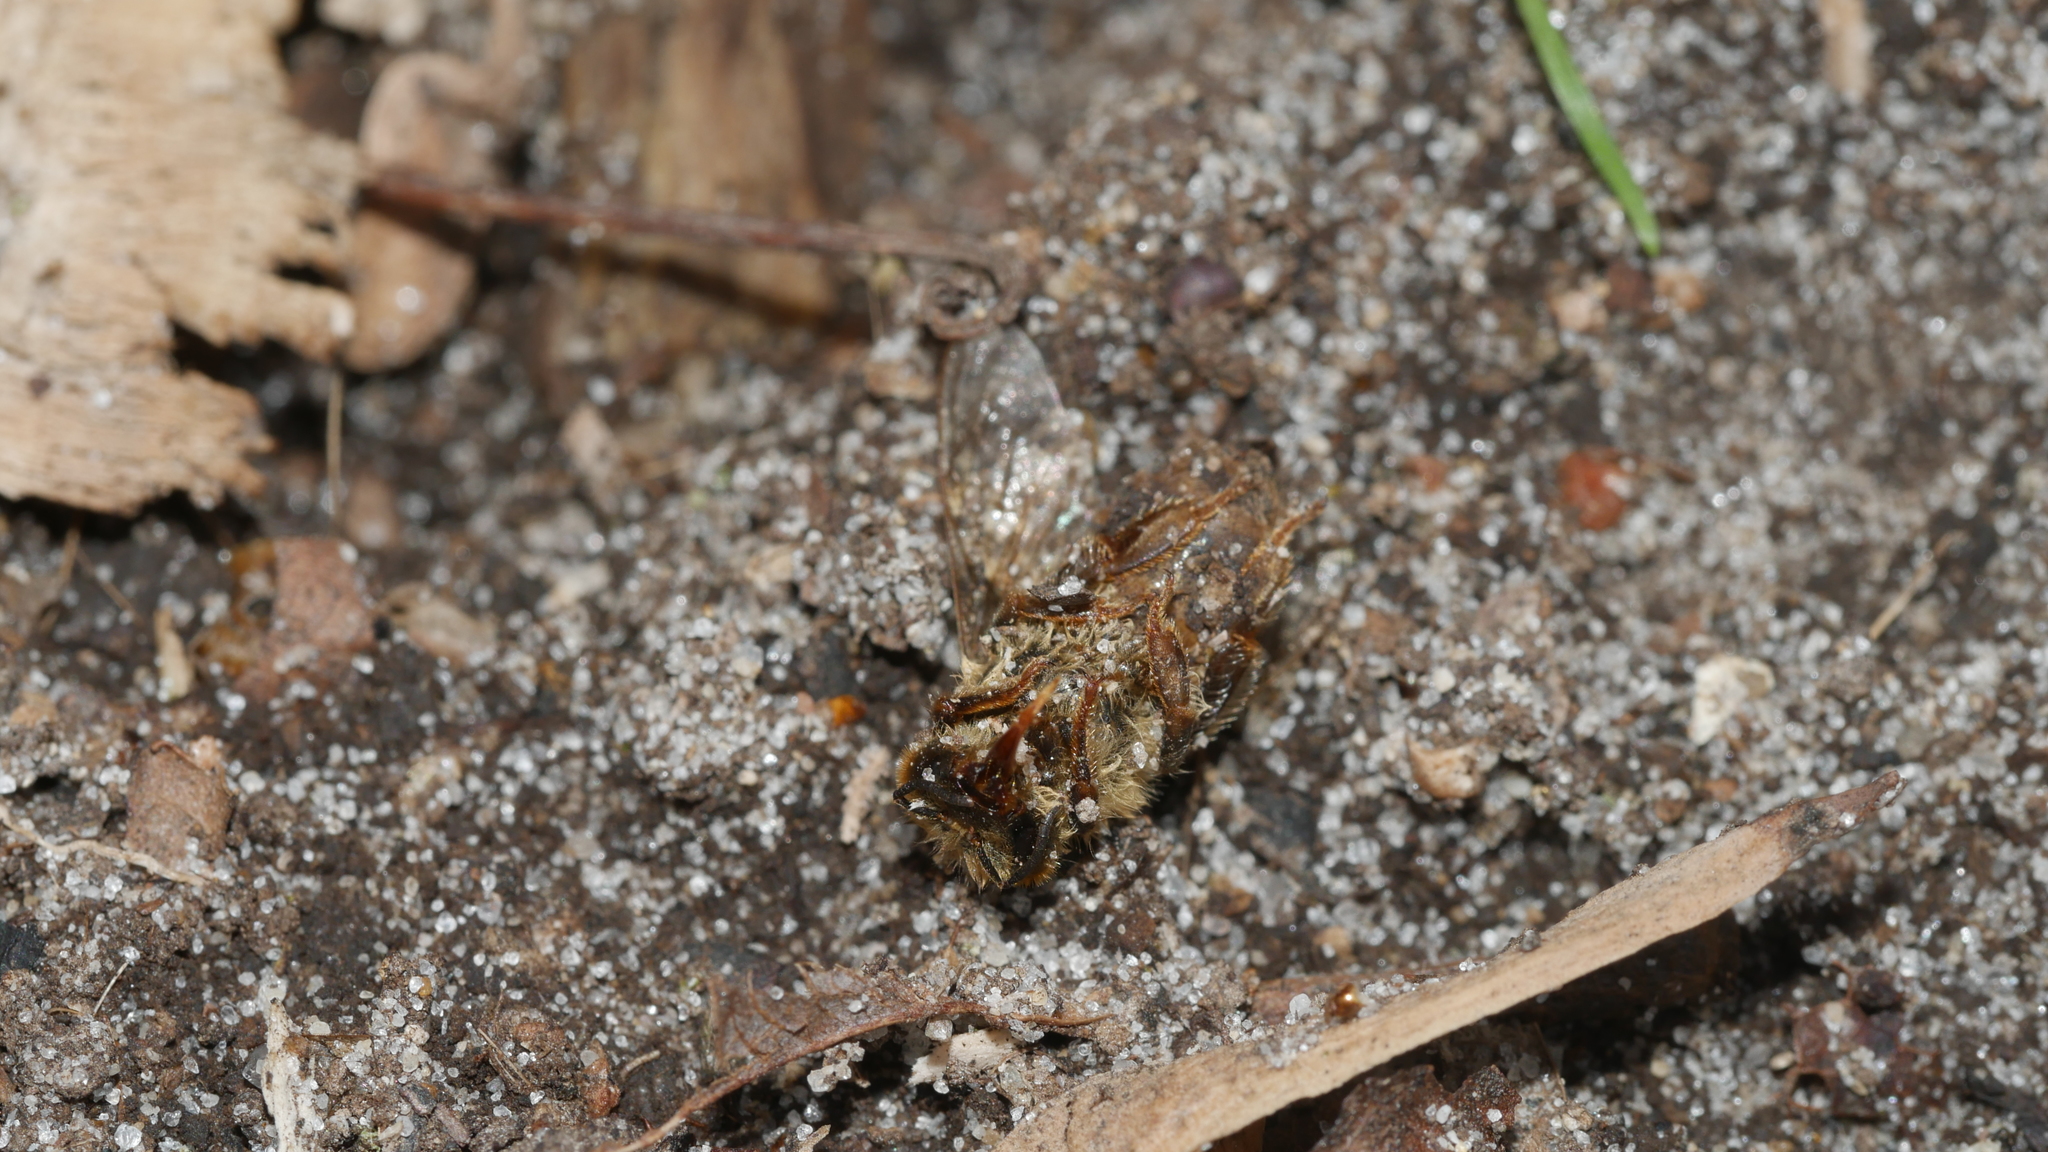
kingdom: Animalia
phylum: Arthropoda
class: Insecta
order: Hymenoptera
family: Apidae
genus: Apis
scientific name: Apis mellifera
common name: Honey bee
